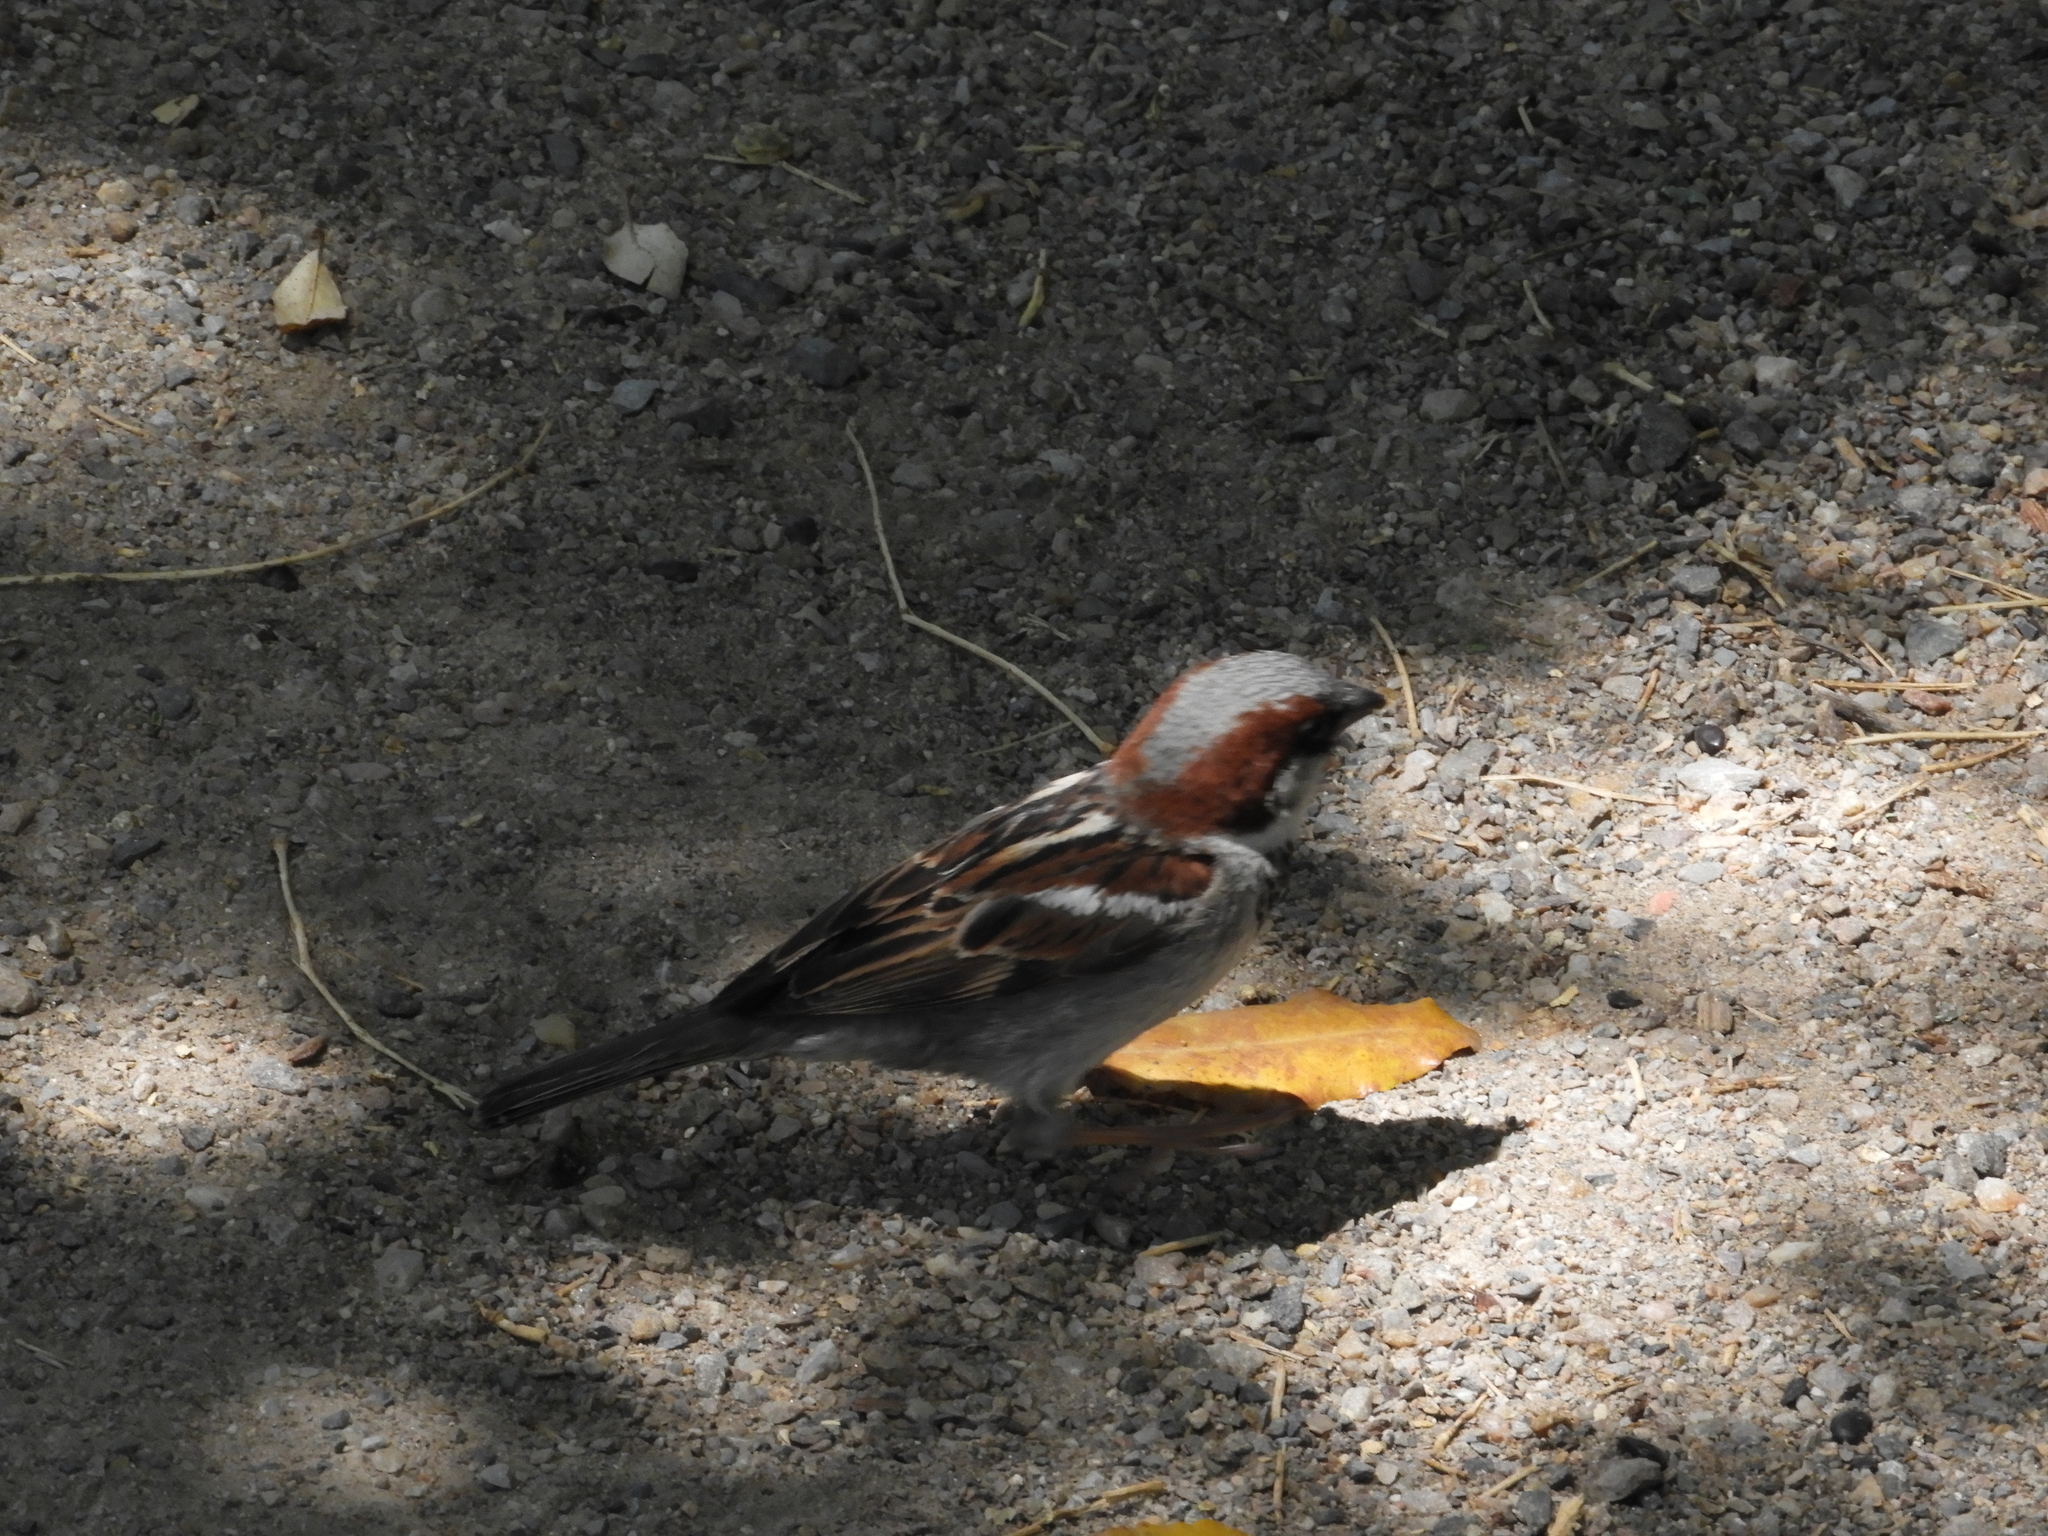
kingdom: Animalia
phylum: Chordata
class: Aves
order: Passeriformes
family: Passeridae
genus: Passer
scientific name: Passer domesticus
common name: House sparrow
